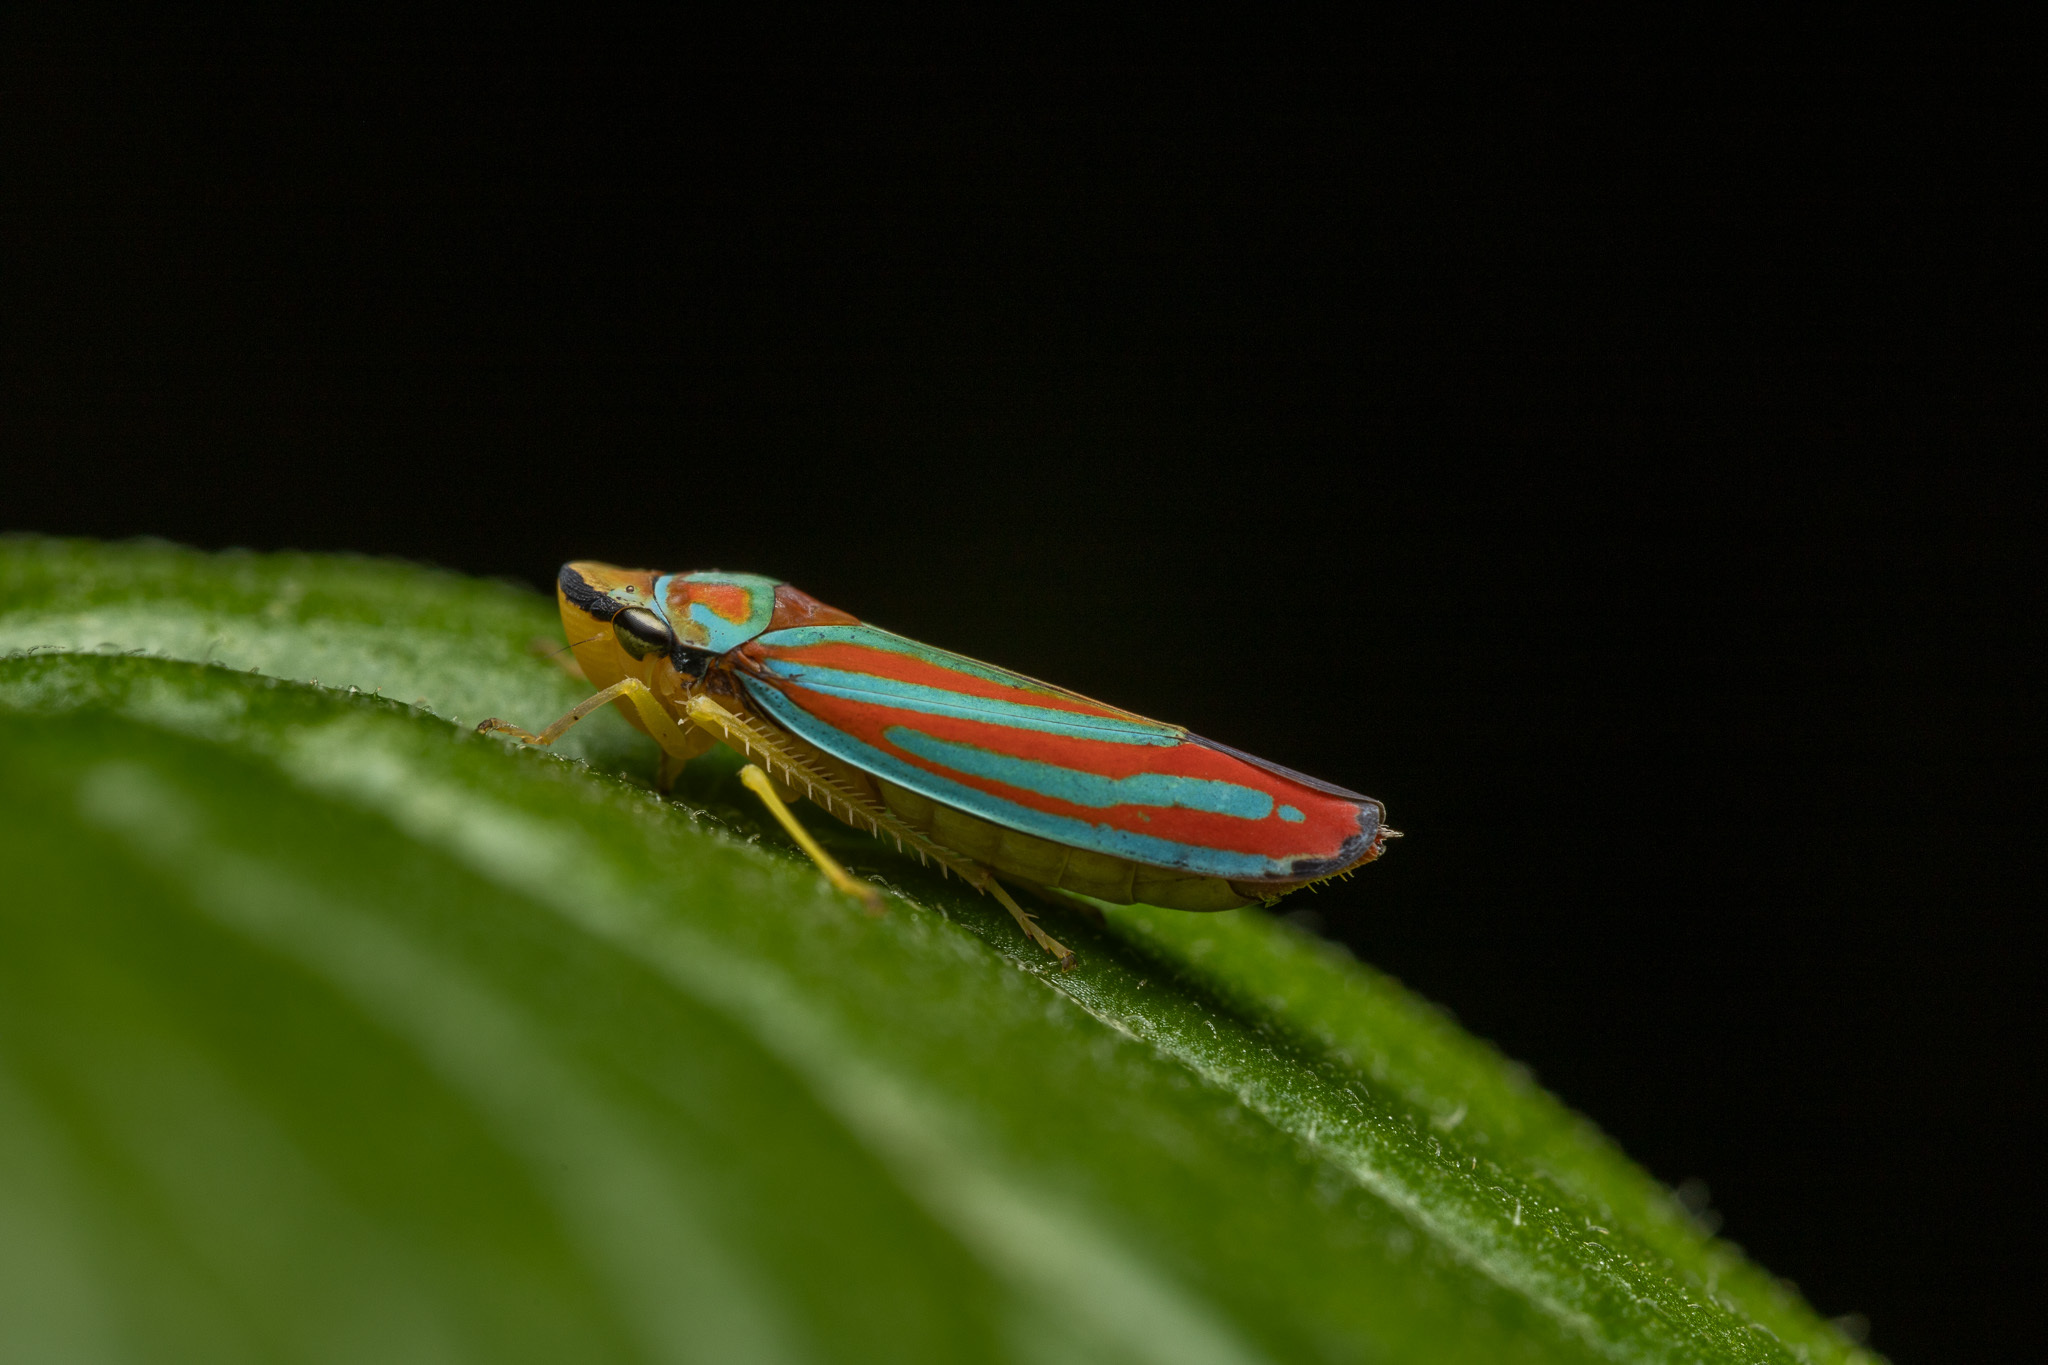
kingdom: Animalia
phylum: Arthropoda
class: Insecta
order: Hemiptera
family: Cicadellidae
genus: Graphocephala
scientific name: Graphocephala coccinea
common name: Candy-striped leafhopper
